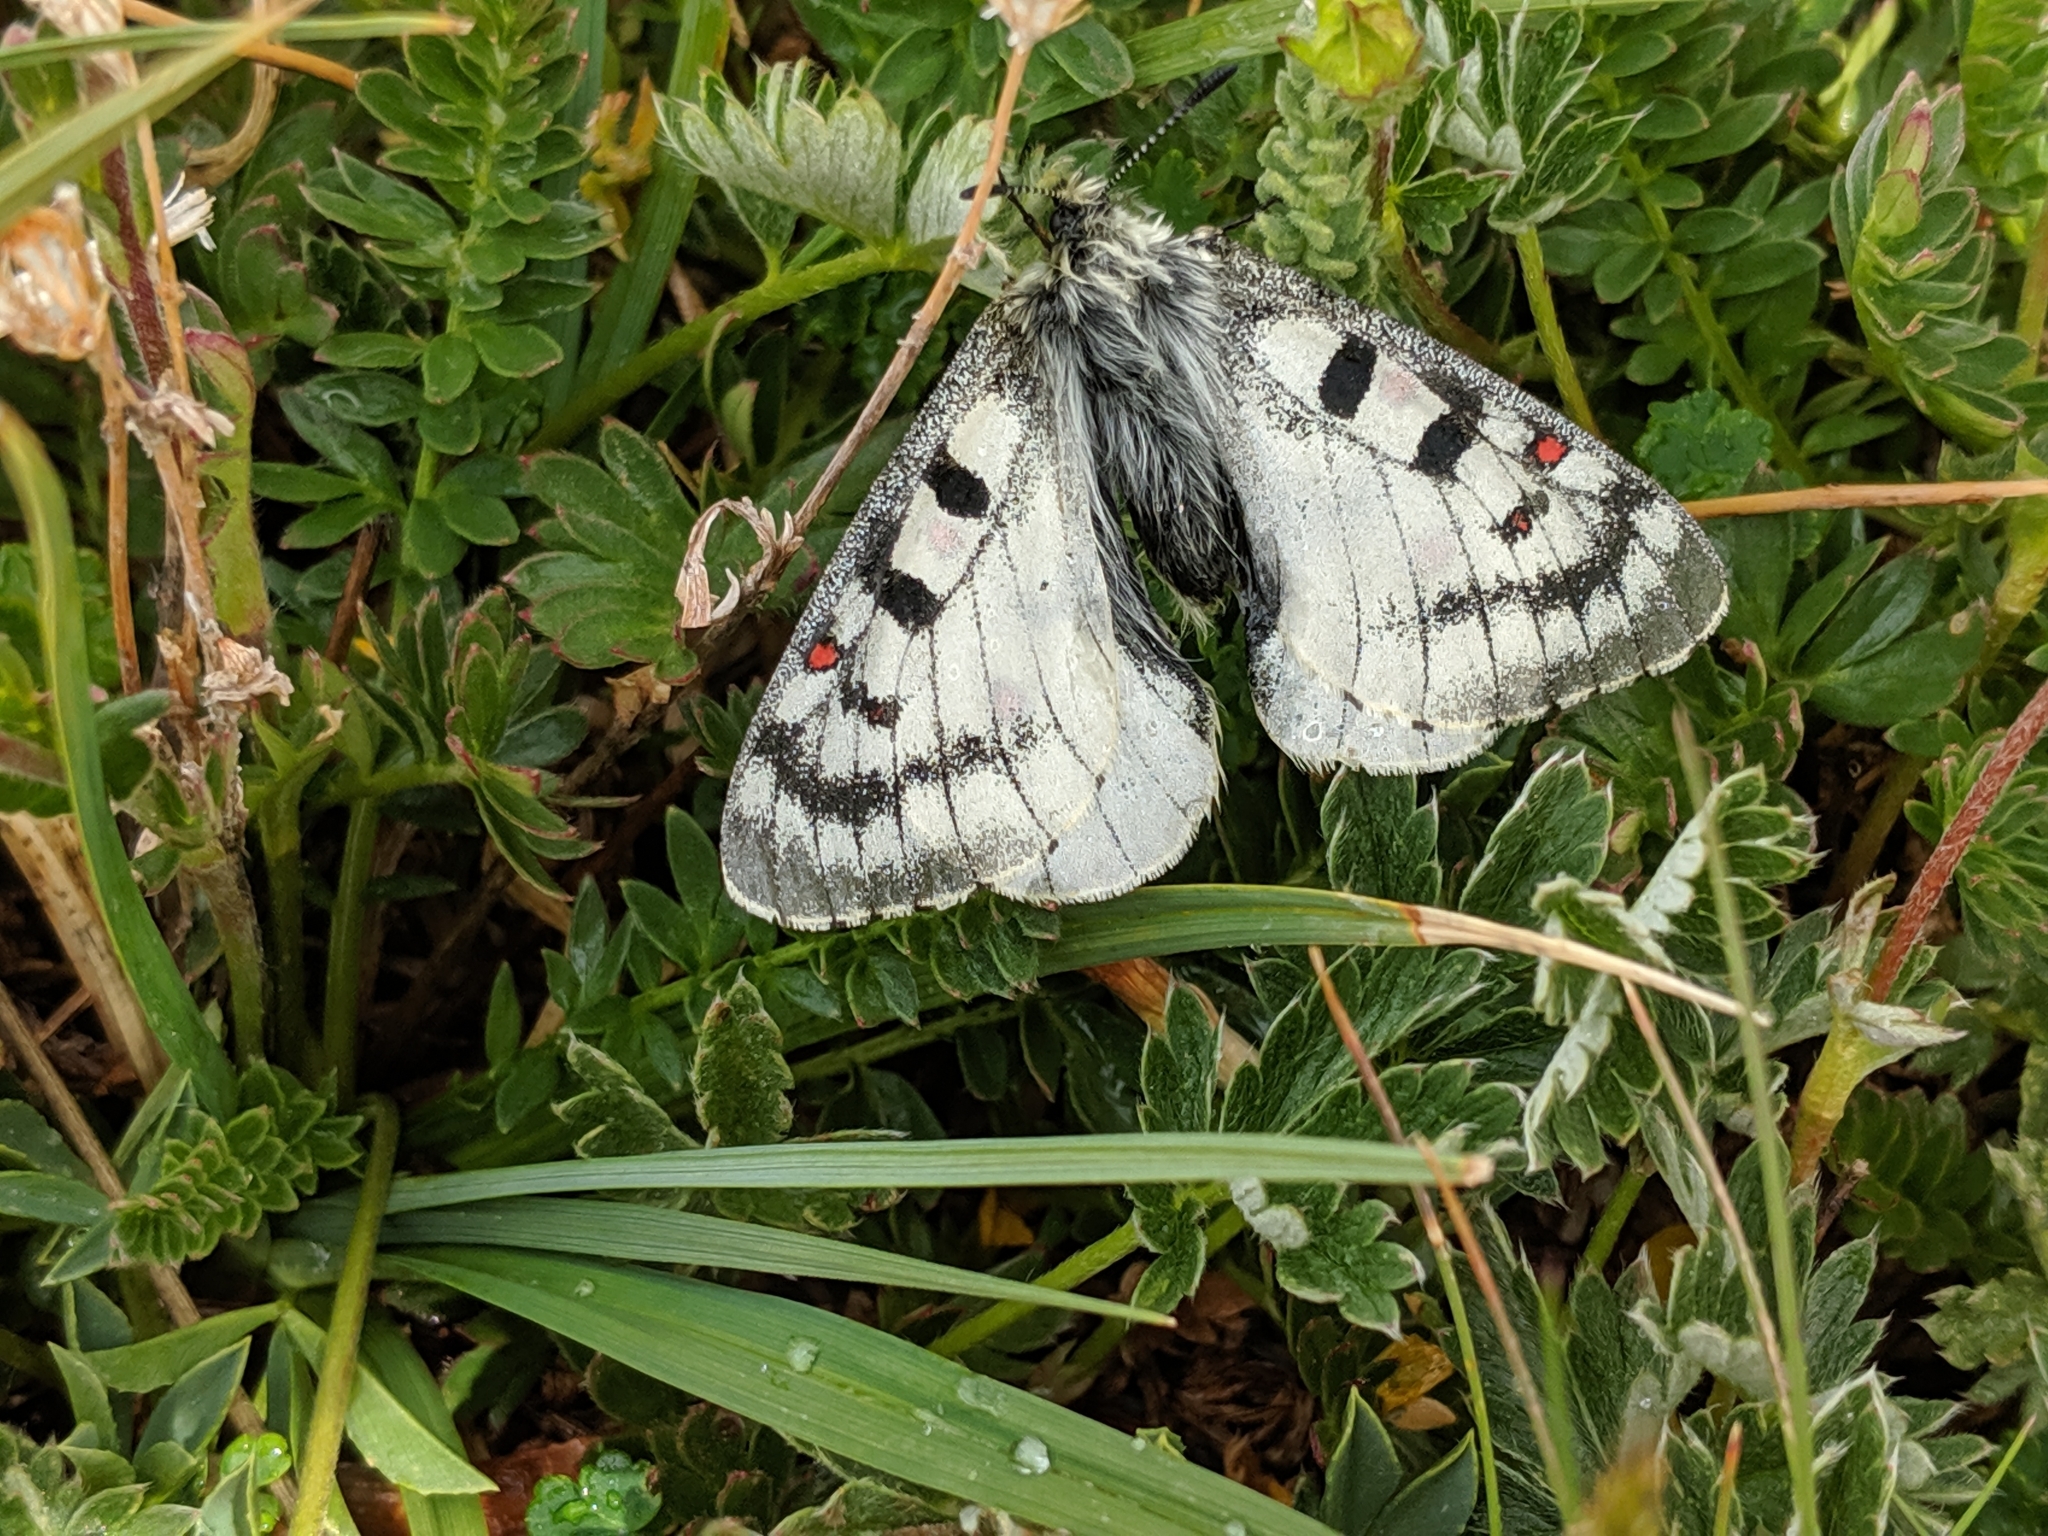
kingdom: Animalia
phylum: Arthropoda
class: Insecta
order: Lepidoptera
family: Papilionidae
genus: Parnassius
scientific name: Parnassius smintheus
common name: Mountain parnassian
